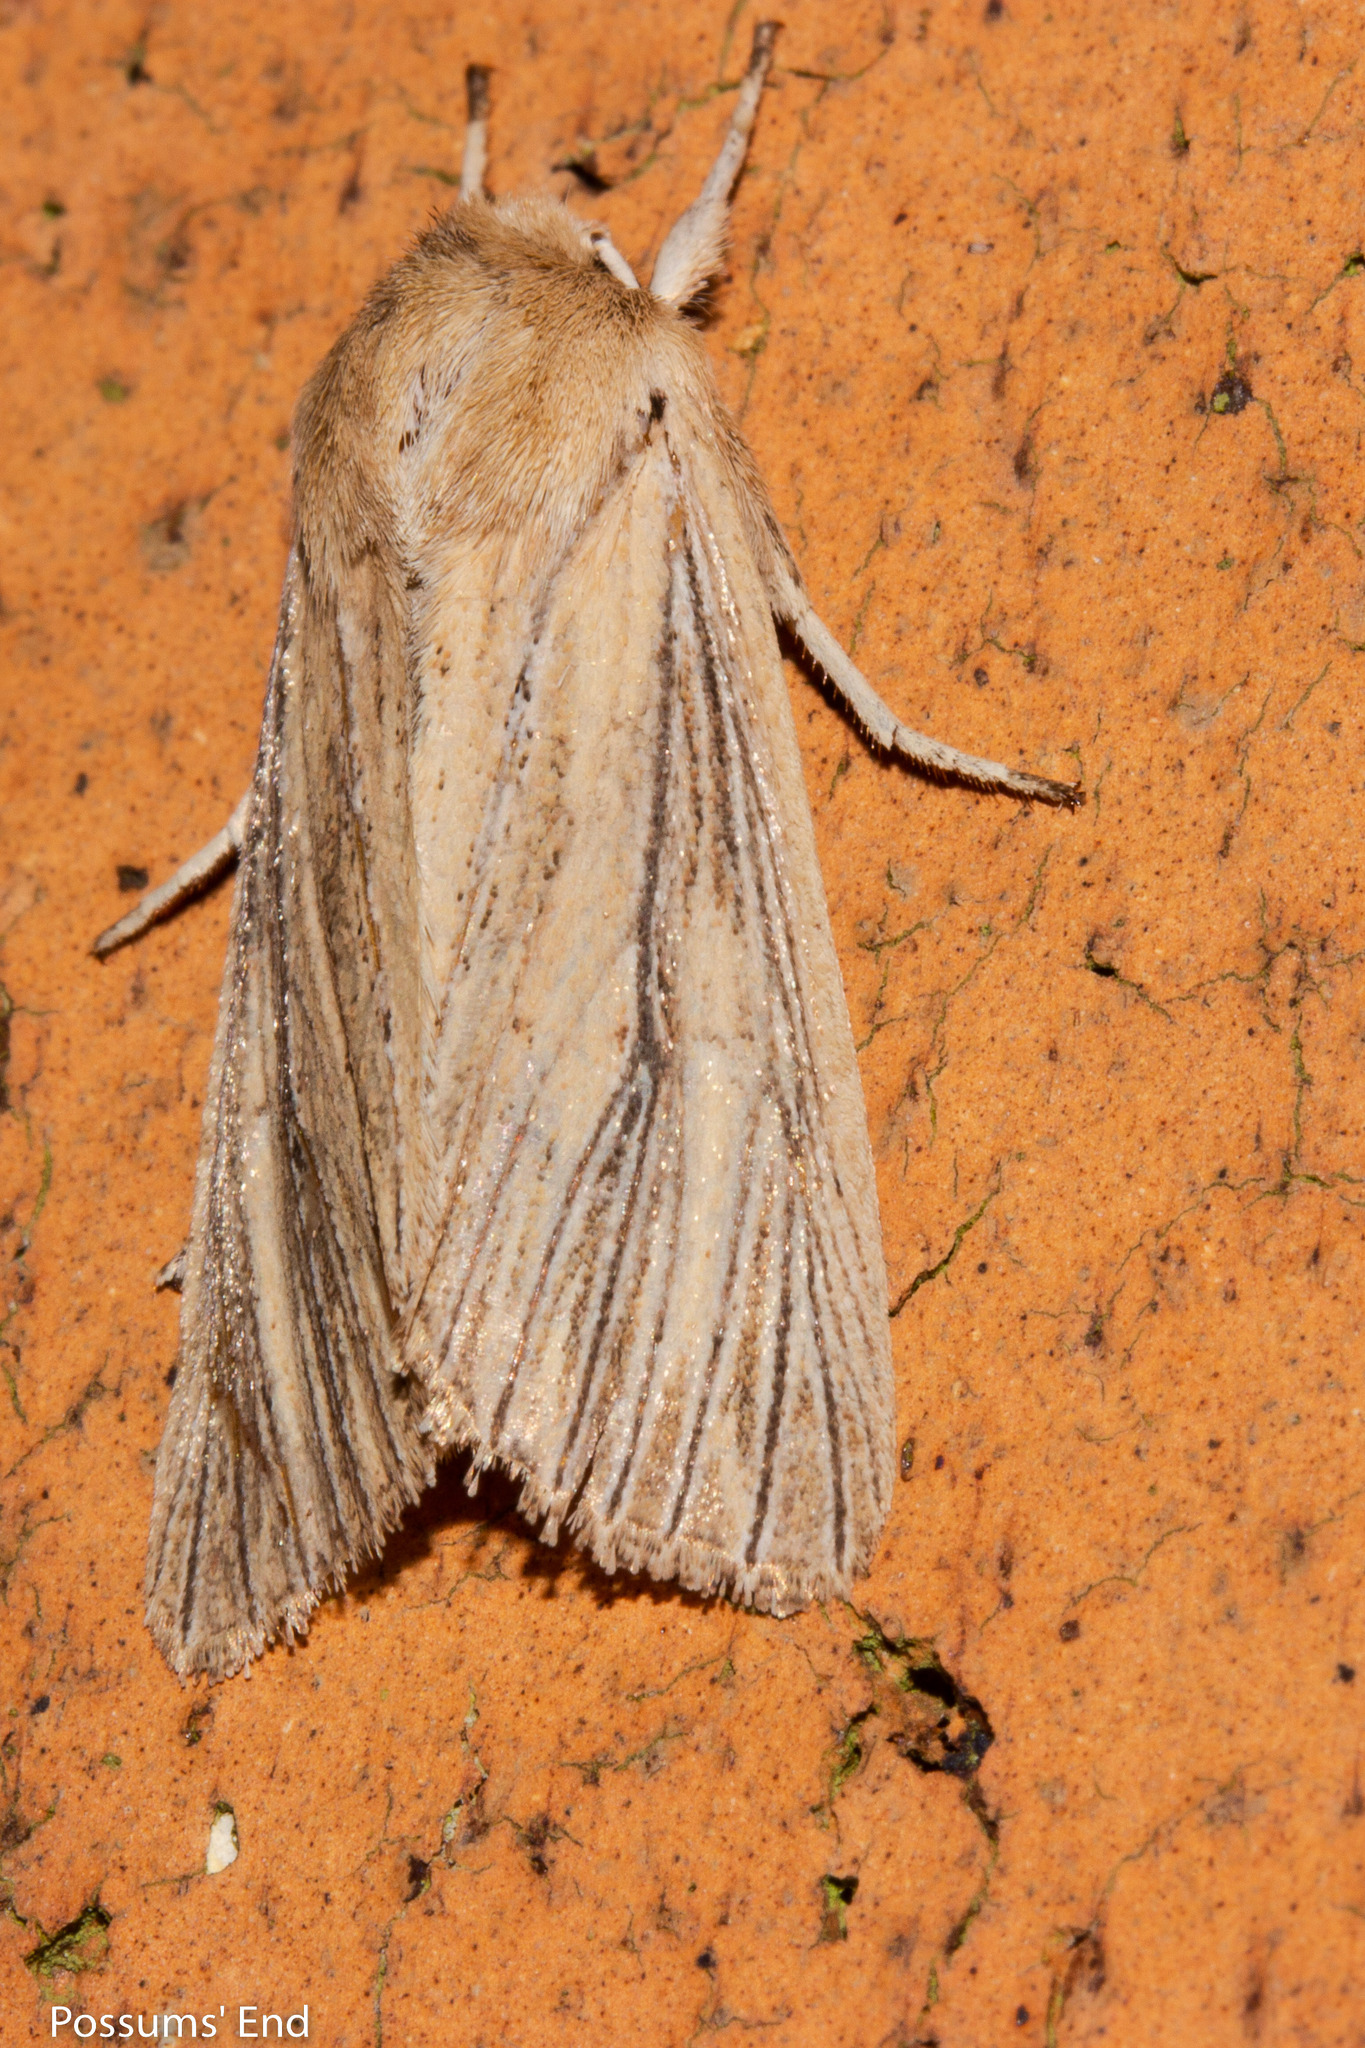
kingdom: Animalia
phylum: Arthropoda
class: Insecta
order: Lepidoptera
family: Noctuidae
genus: Ichneutica
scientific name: Ichneutica arotis
